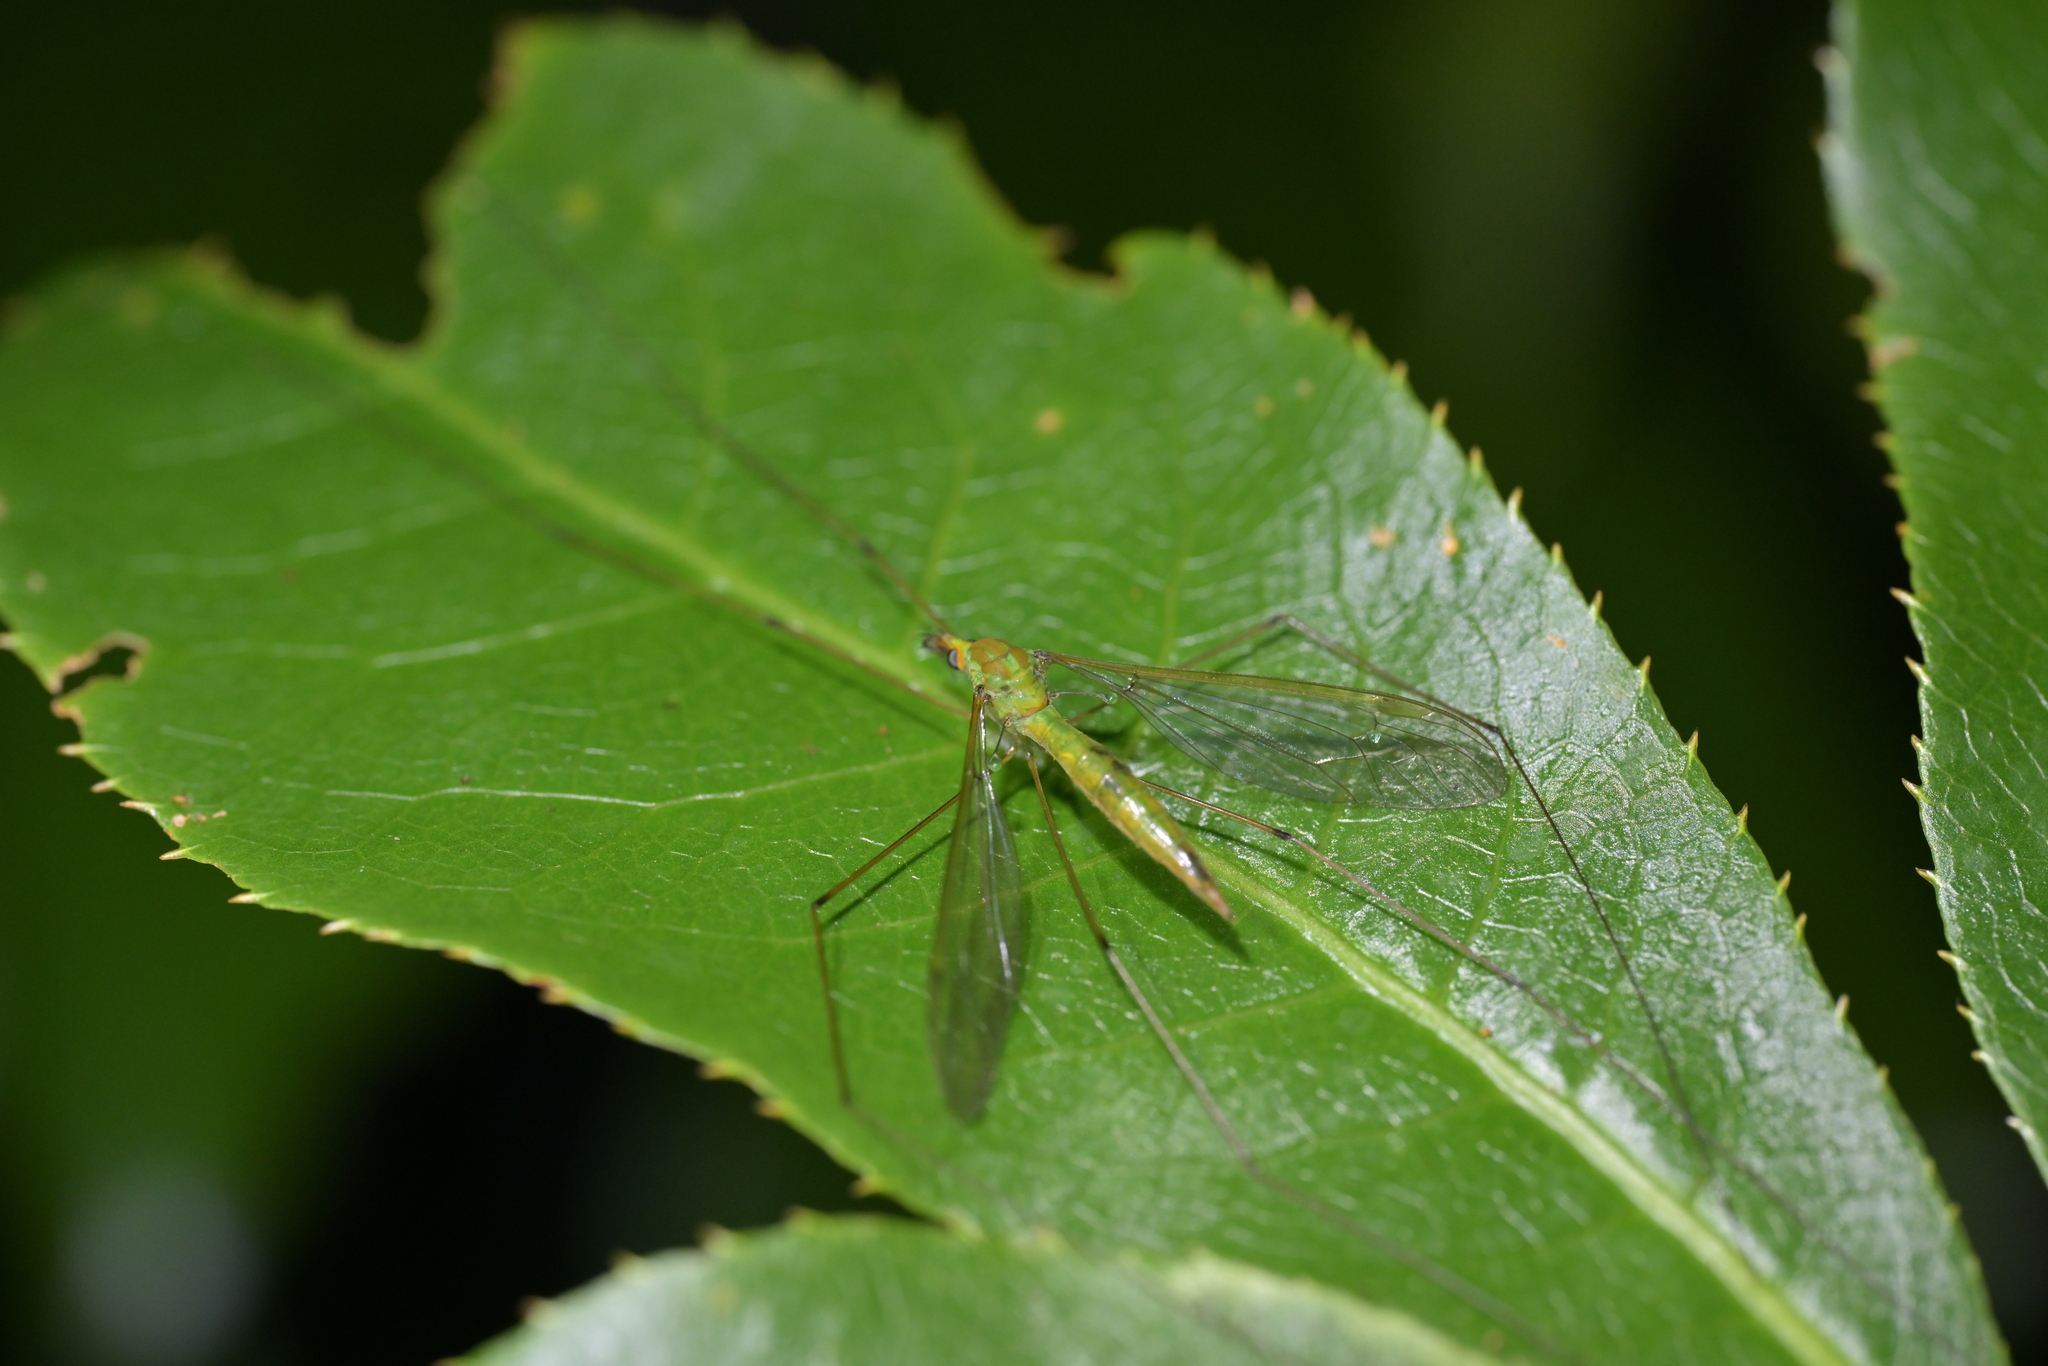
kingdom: Animalia
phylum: Arthropoda
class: Insecta
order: Diptera
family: Tipulidae
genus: Leptotarsus
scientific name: Leptotarsus virescens
